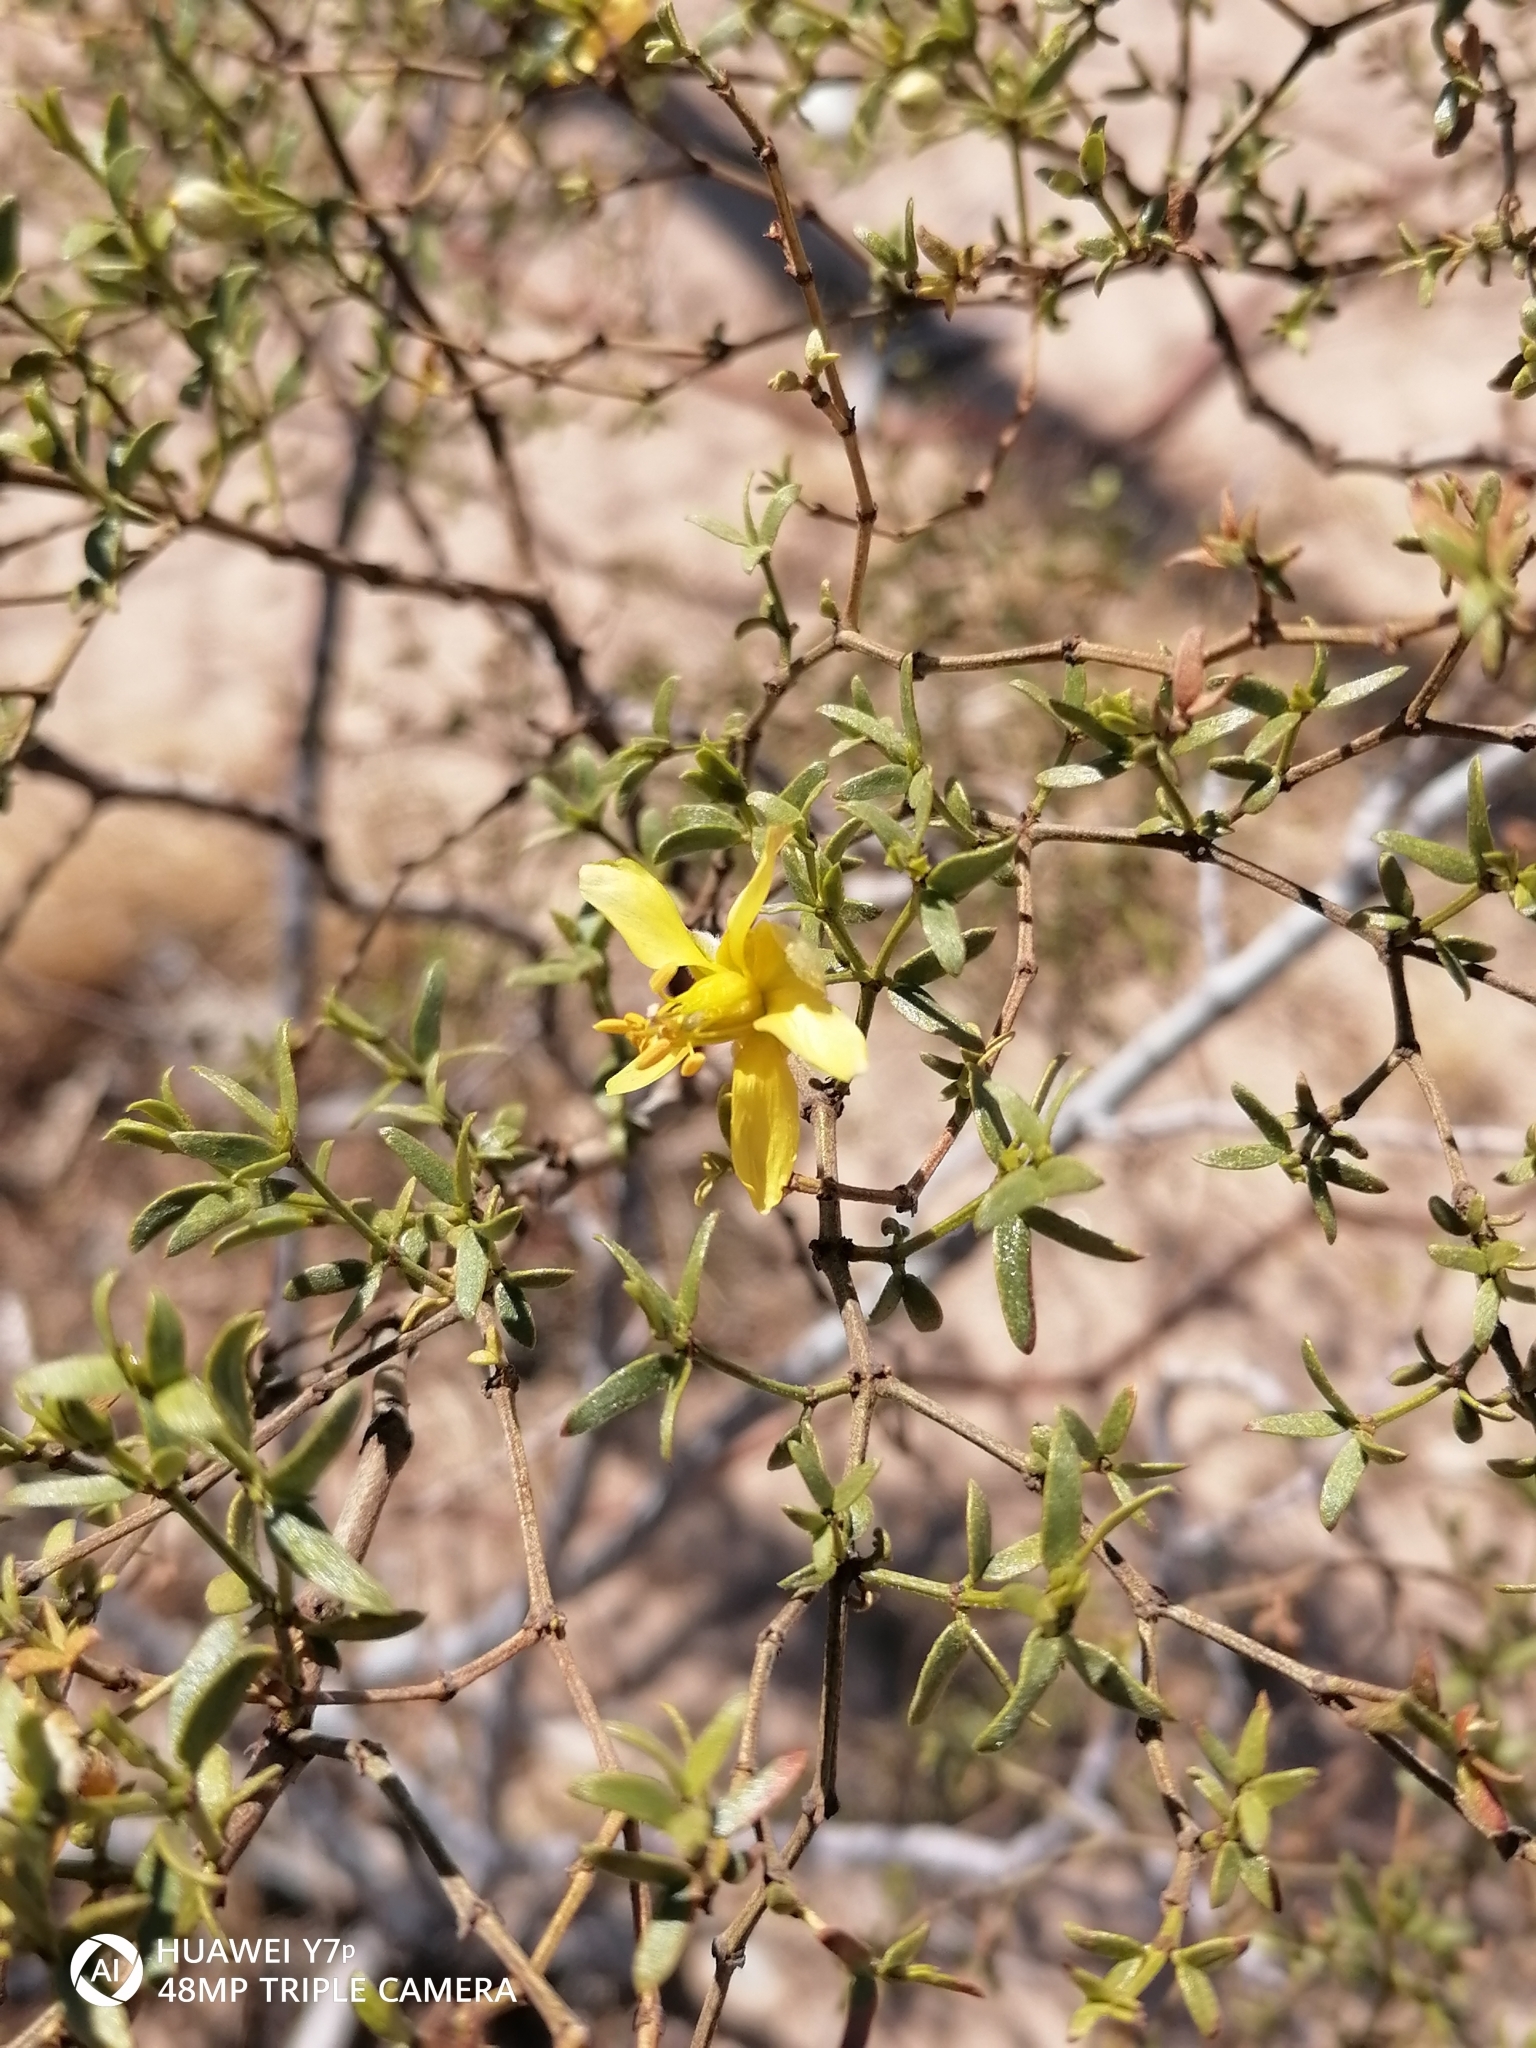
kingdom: Plantae
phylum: Tracheophyta
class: Magnoliopsida
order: Zygophyllales
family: Zygophyllaceae
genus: Larrea
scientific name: Larrea tridentata
